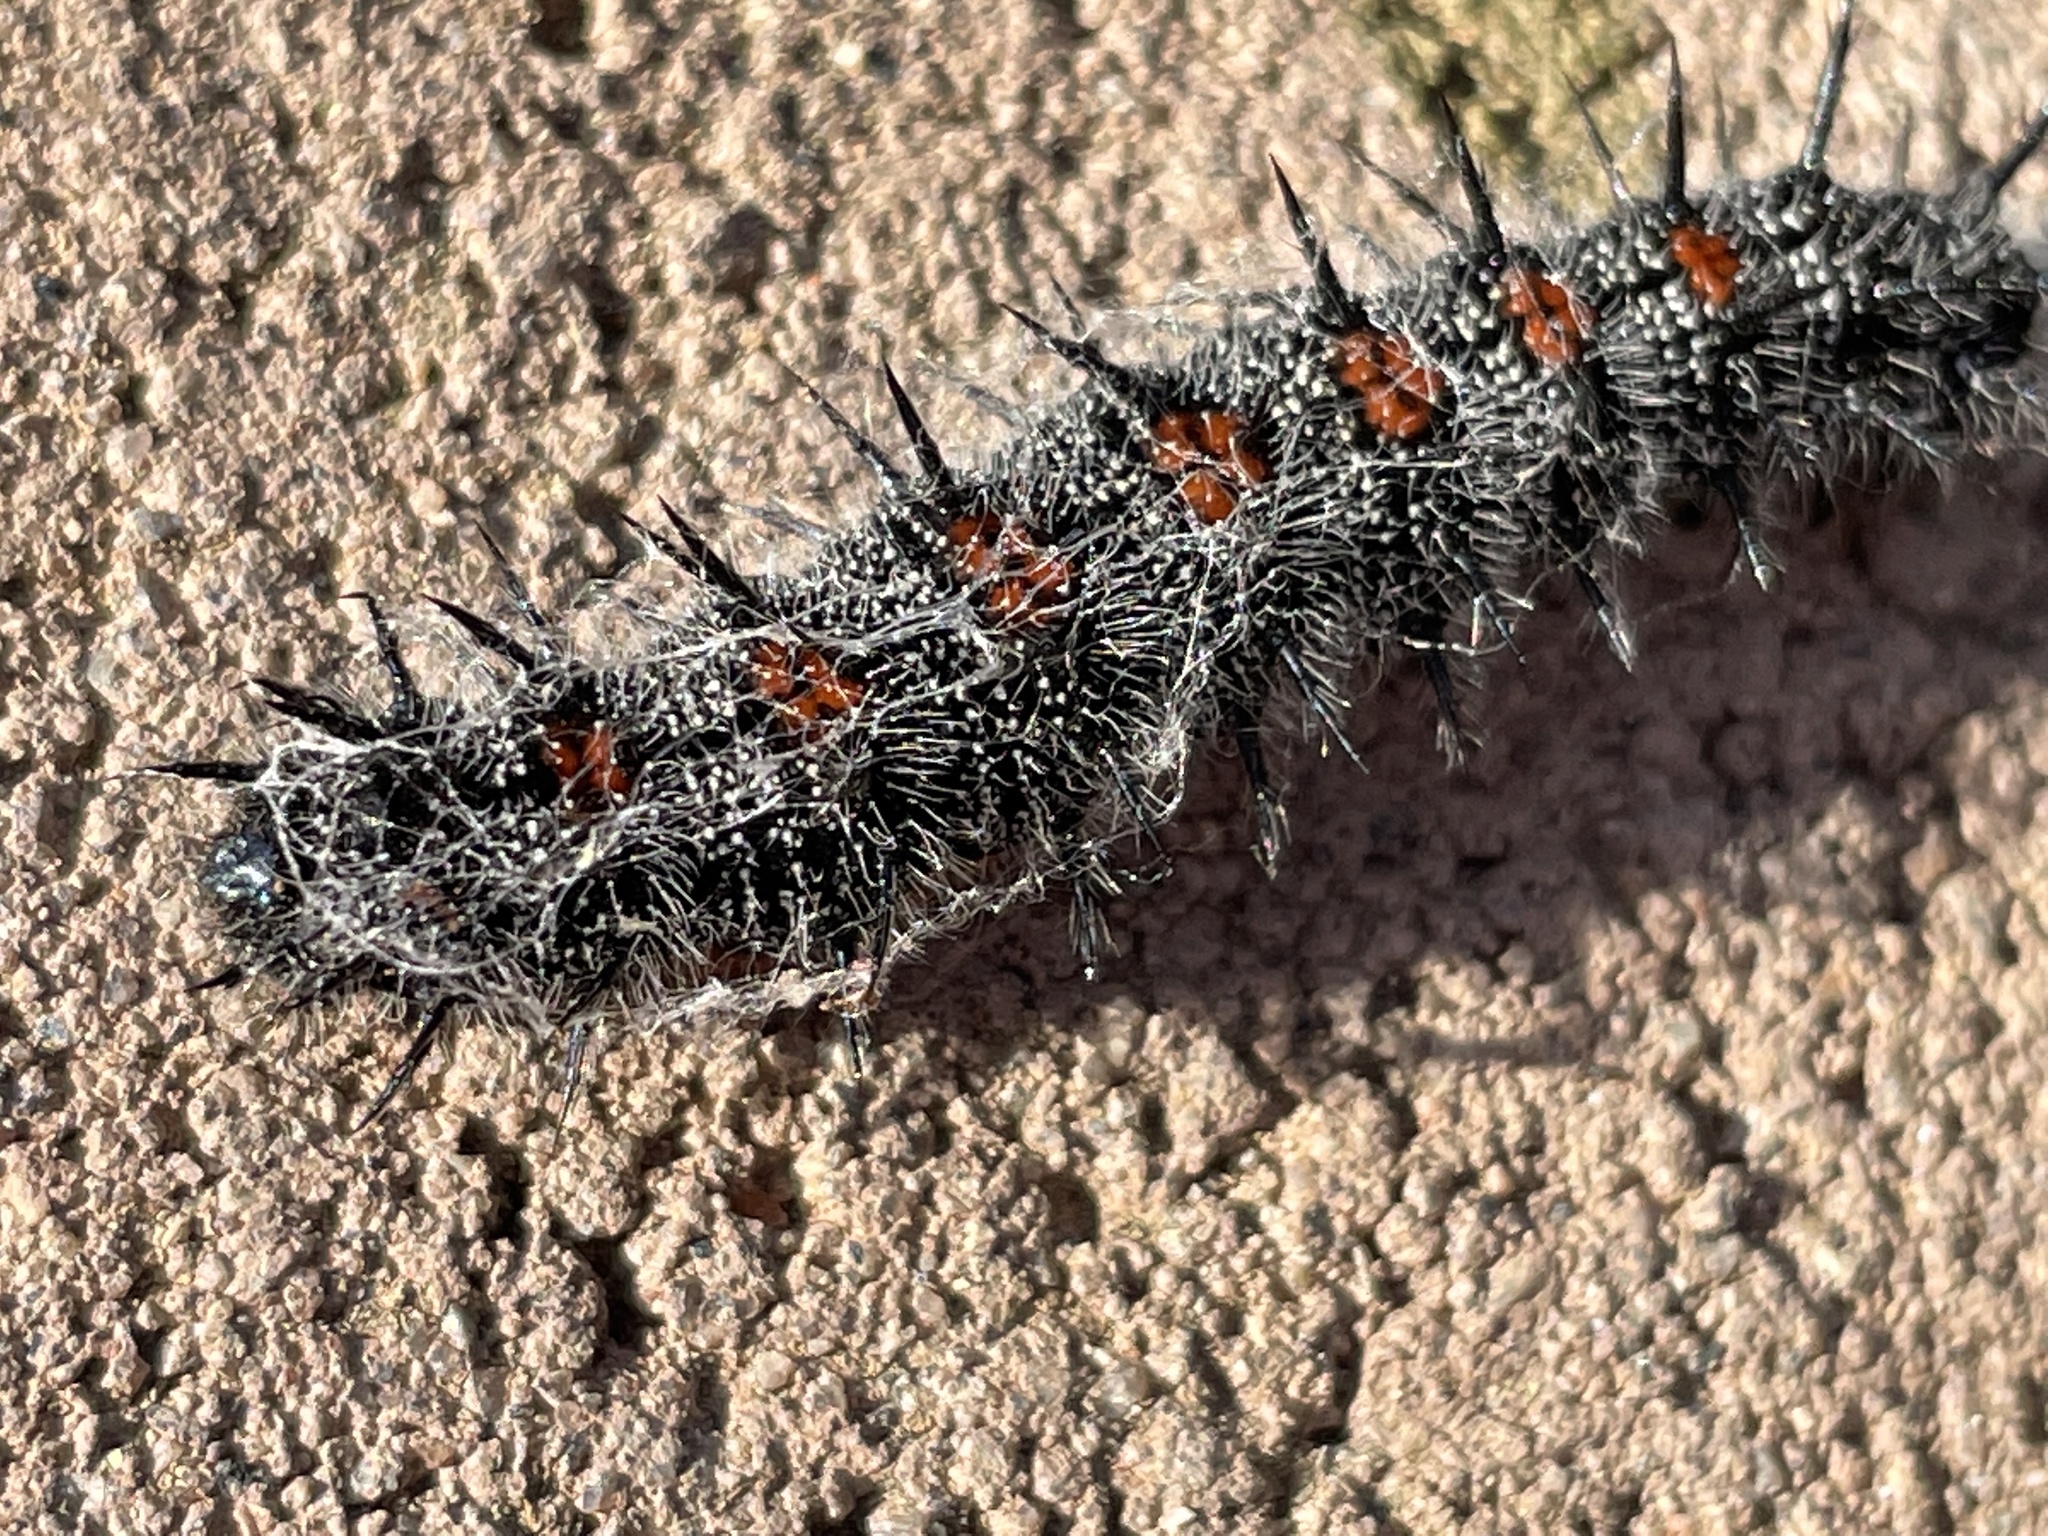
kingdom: Animalia
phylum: Arthropoda
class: Insecta
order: Lepidoptera
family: Nymphalidae
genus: Nymphalis
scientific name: Nymphalis antiopa
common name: Camberwell beauty
